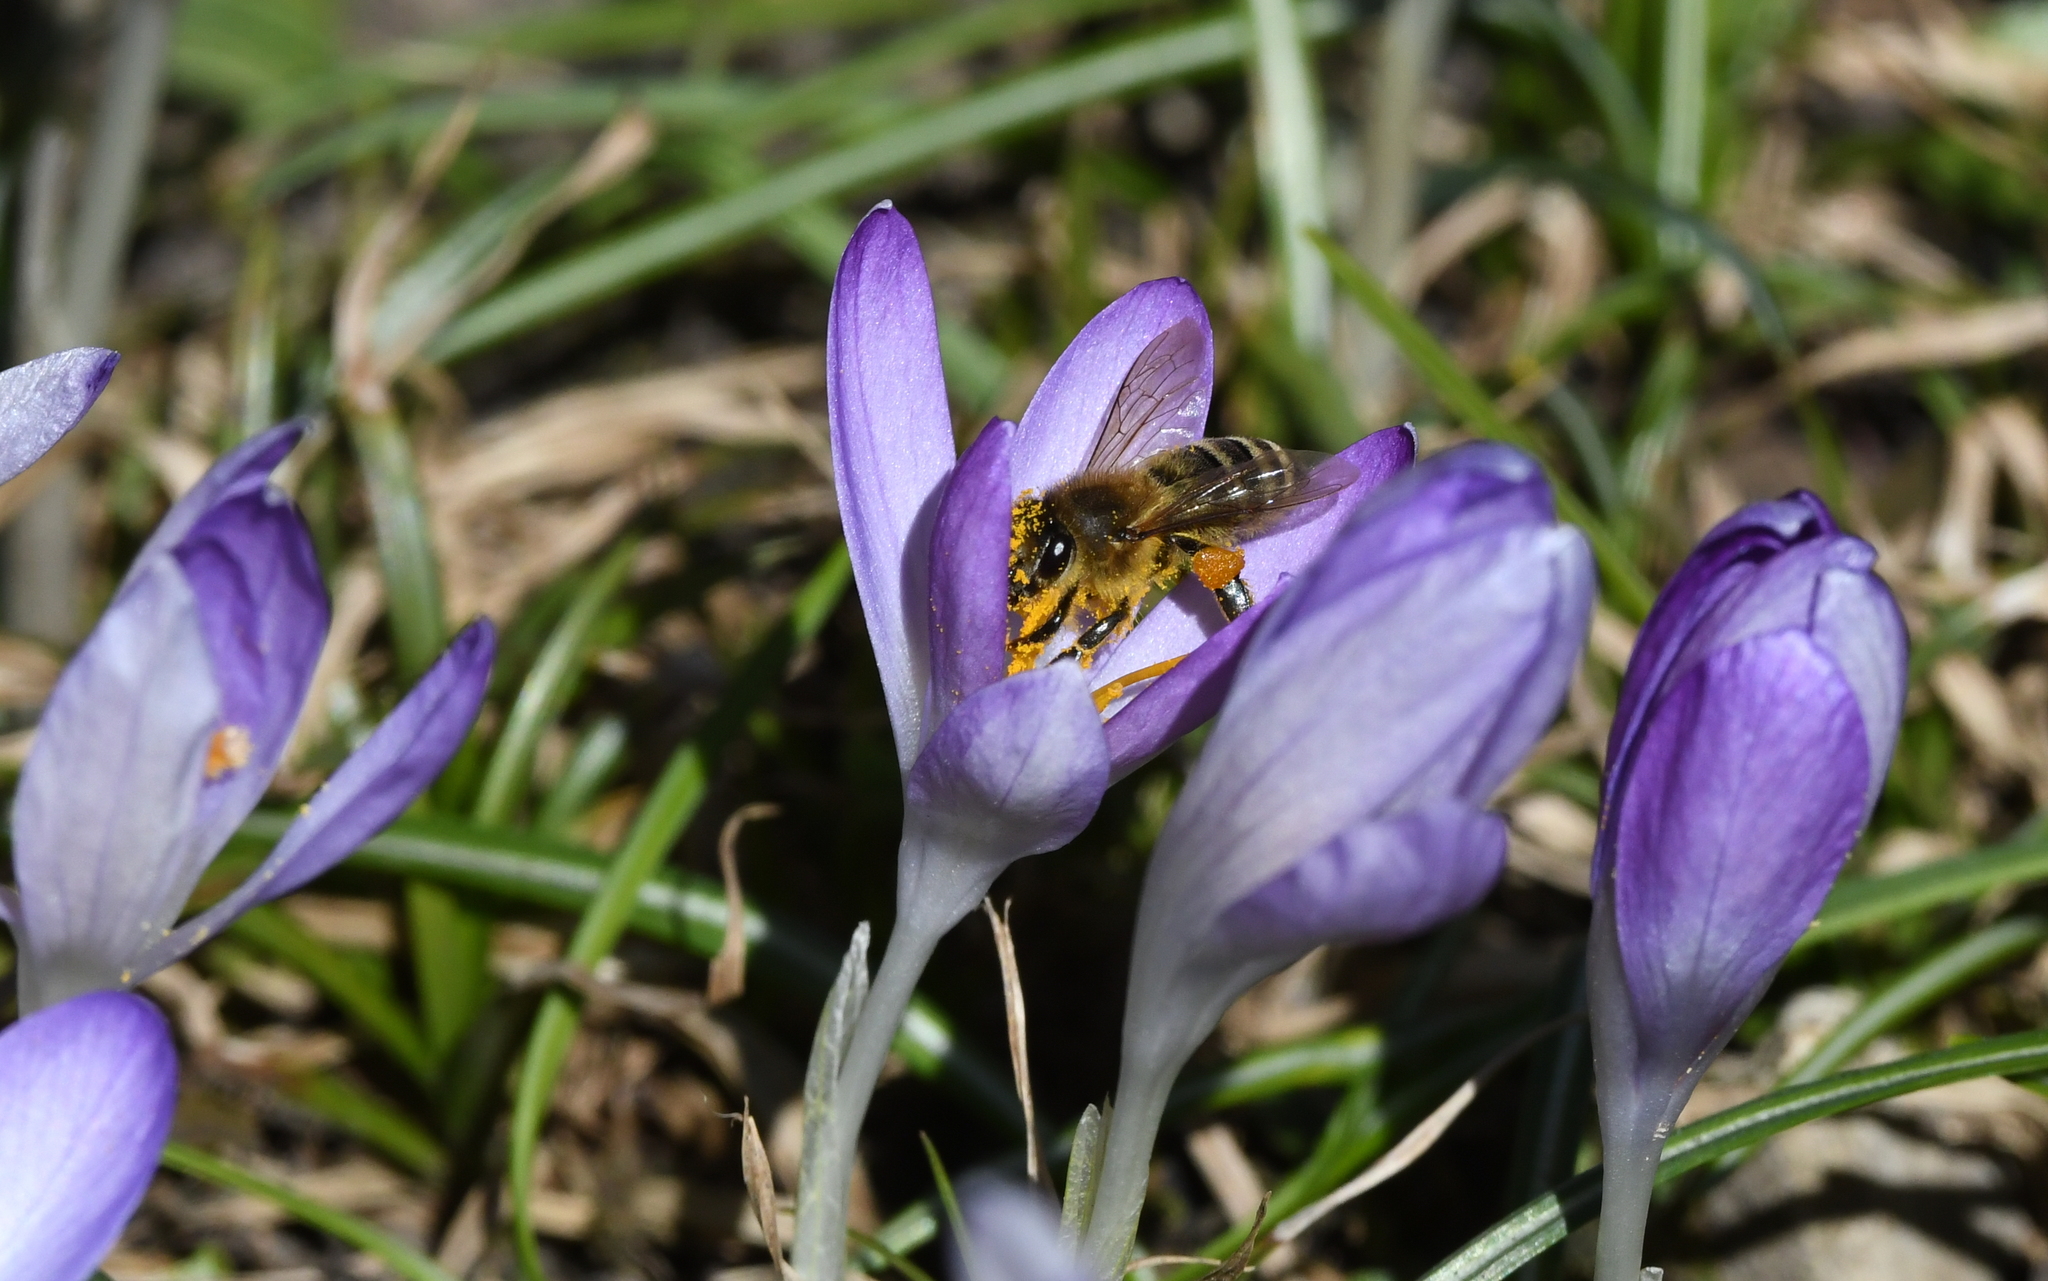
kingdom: Animalia
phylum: Arthropoda
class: Insecta
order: Hymenoptera
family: Apidae
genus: Apis
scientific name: Apis mellifera
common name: Honey bee
